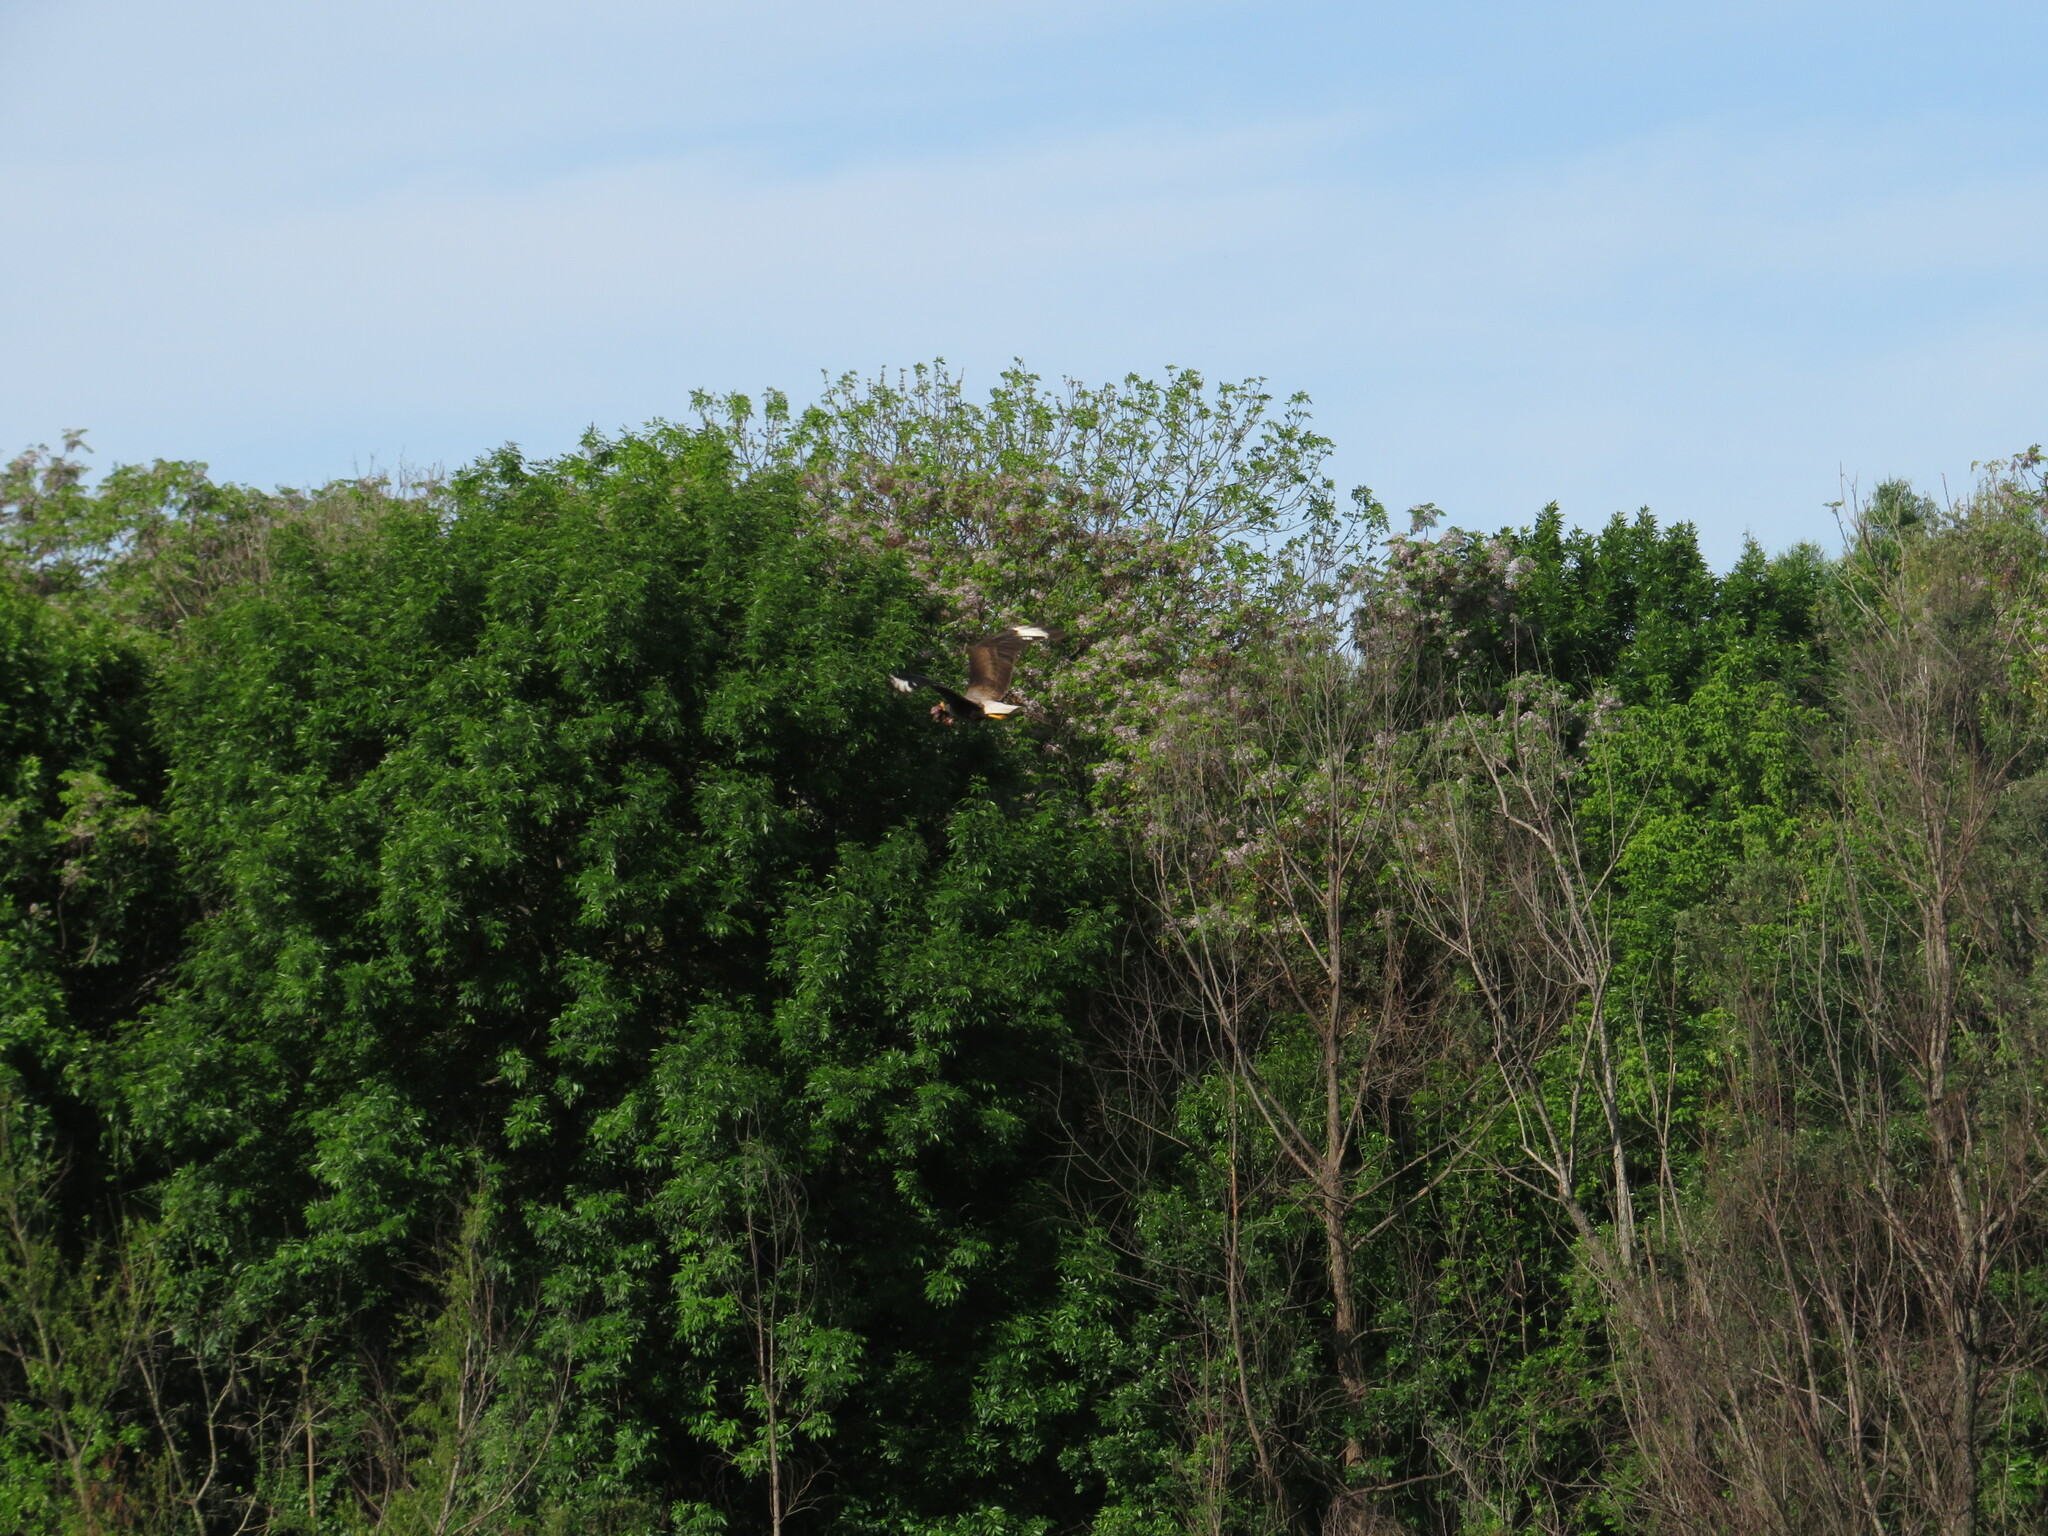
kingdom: Animalia
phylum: Chordata
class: Aves
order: Falconiformes
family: Falconidae
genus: Caracara
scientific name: Caracara plancus
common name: Southern caracara
